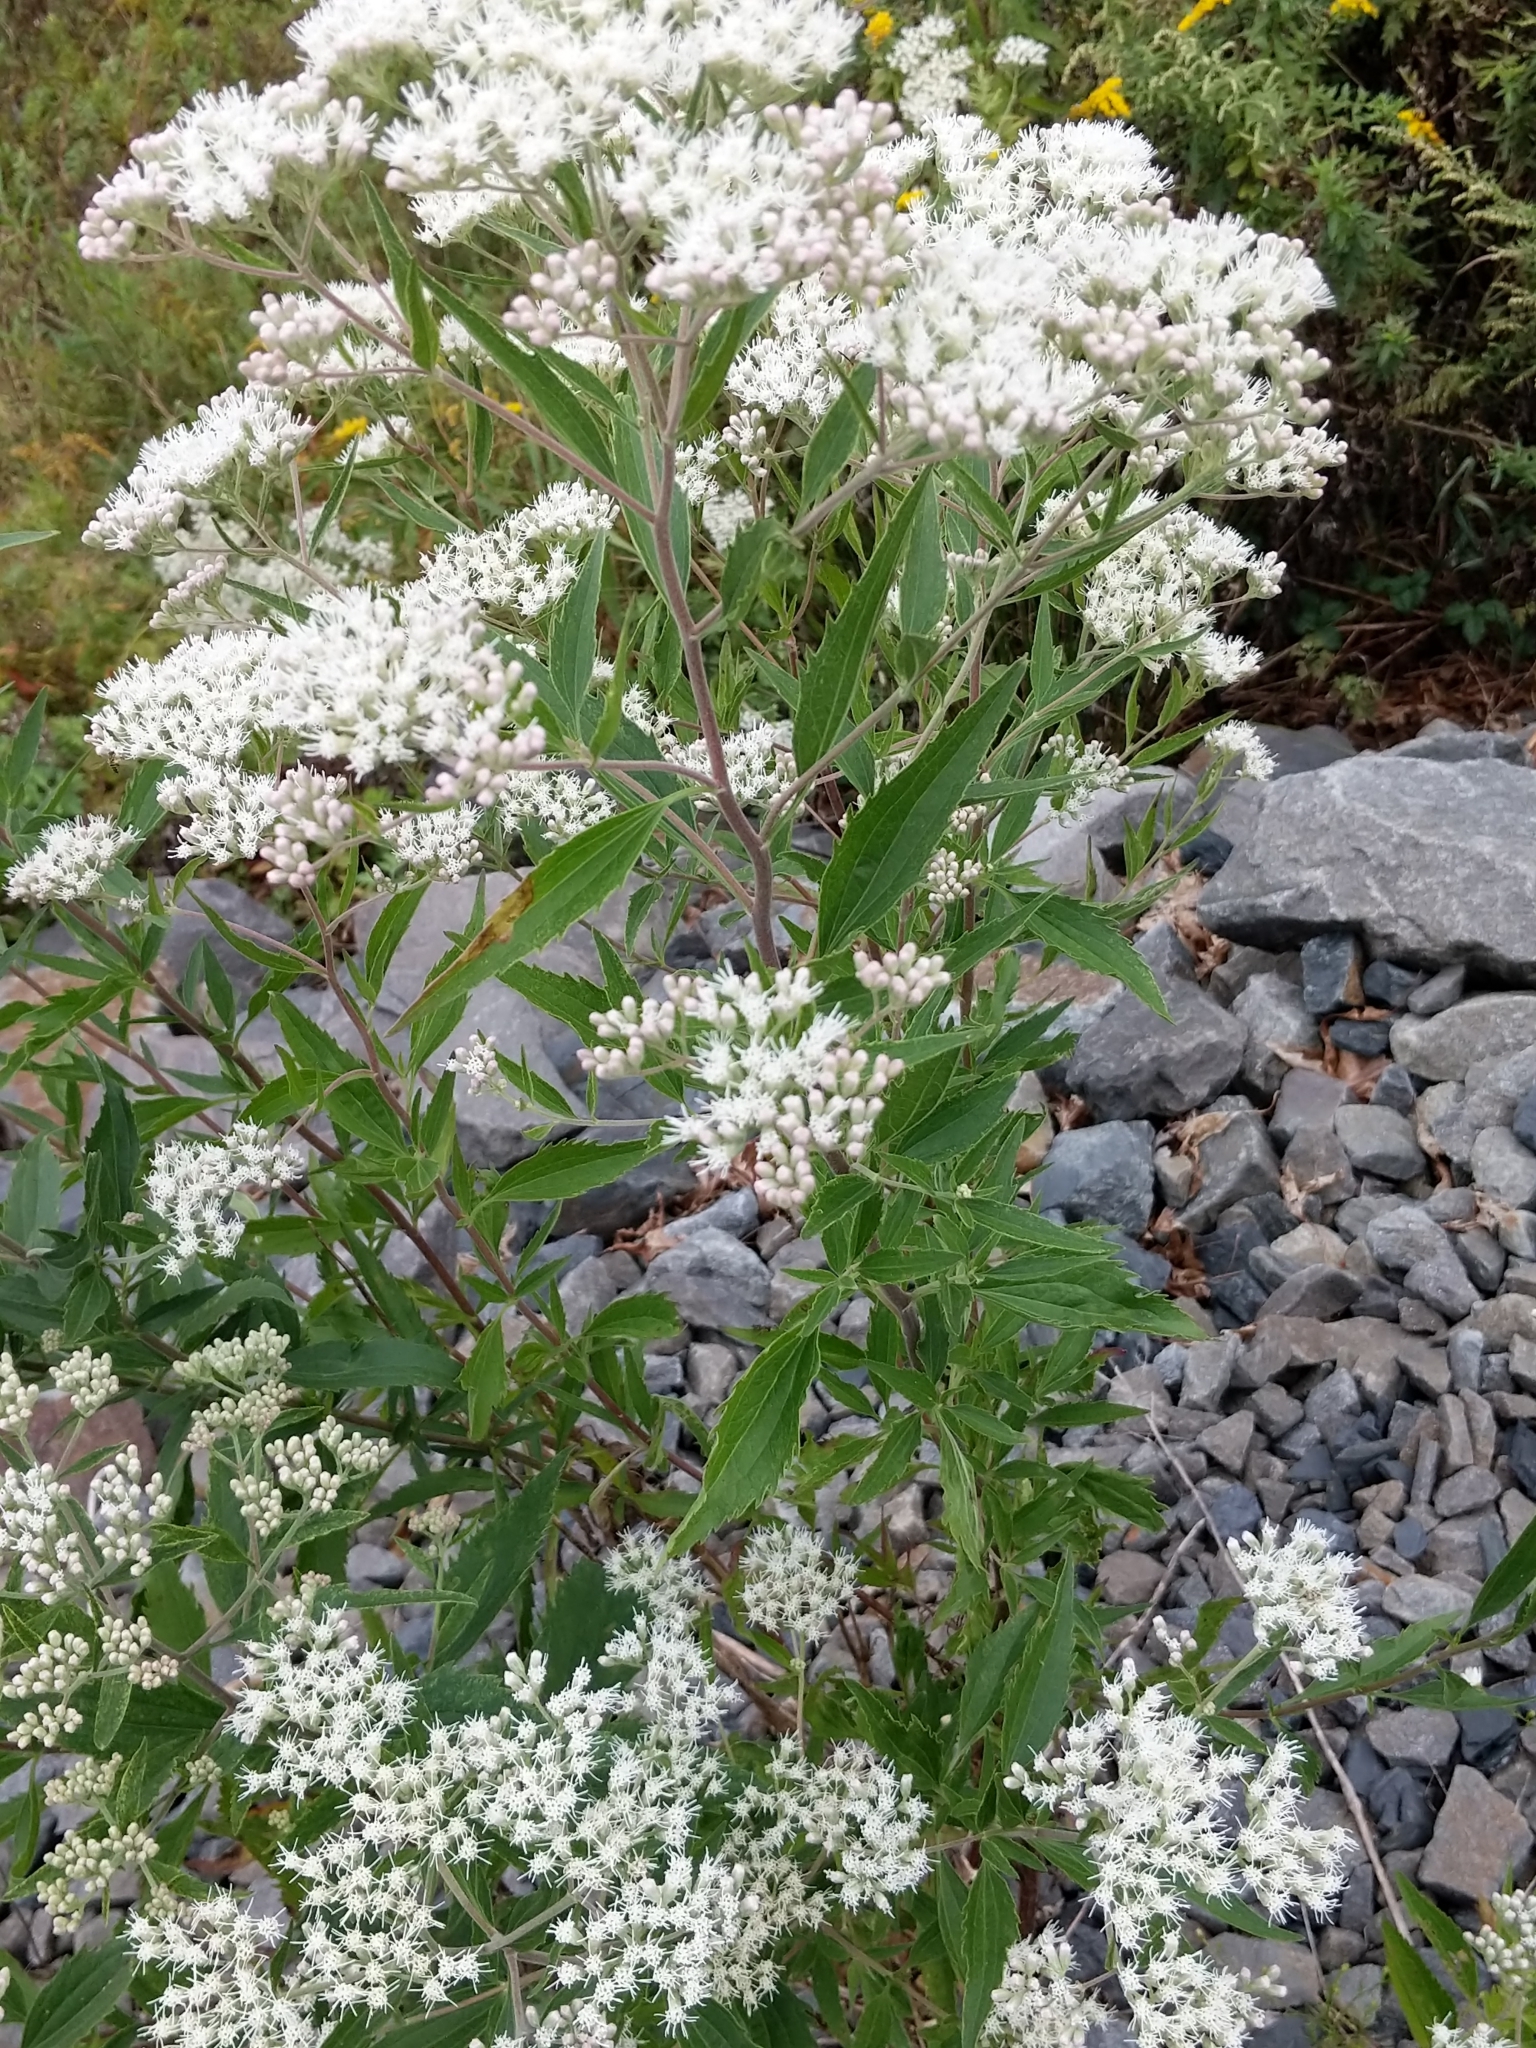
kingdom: Plantae
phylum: Tracheophyta
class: Magnoliopsida
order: Asterales
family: Asteraceae
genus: Eupatorium
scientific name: Eupatorium serotinum
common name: Late boneset
